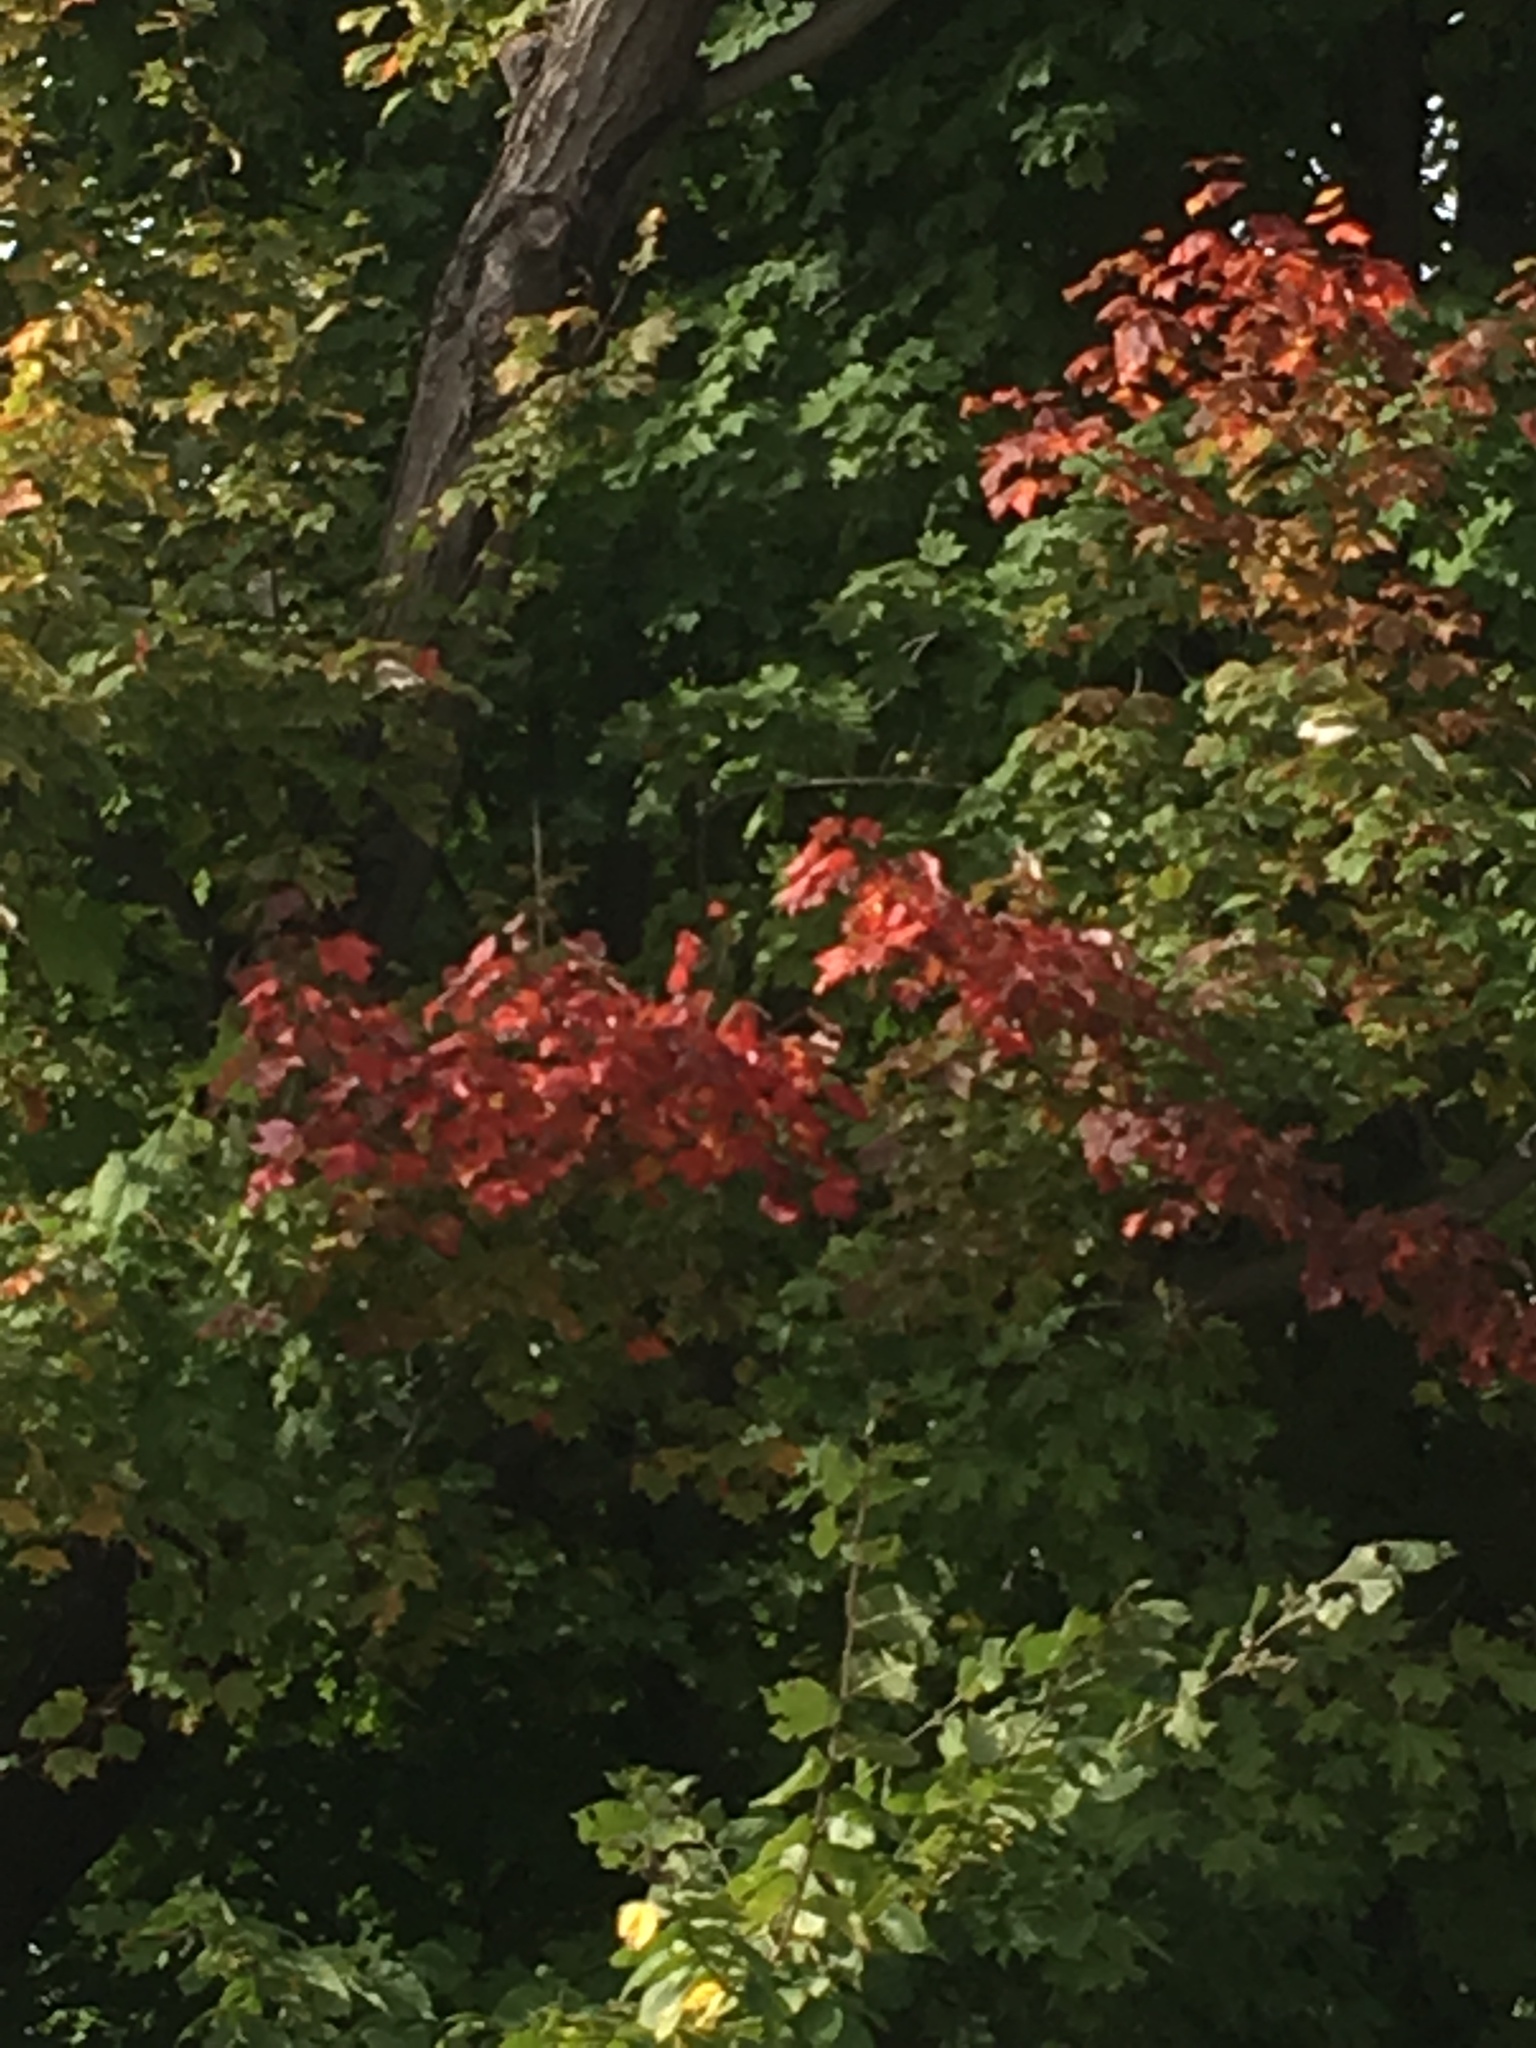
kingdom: Plantae
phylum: Tracheophyta
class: Magnoliopsida
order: Sapindales
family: Sapindaceae
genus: Acer
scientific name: Acer rubrum
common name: Red maple
